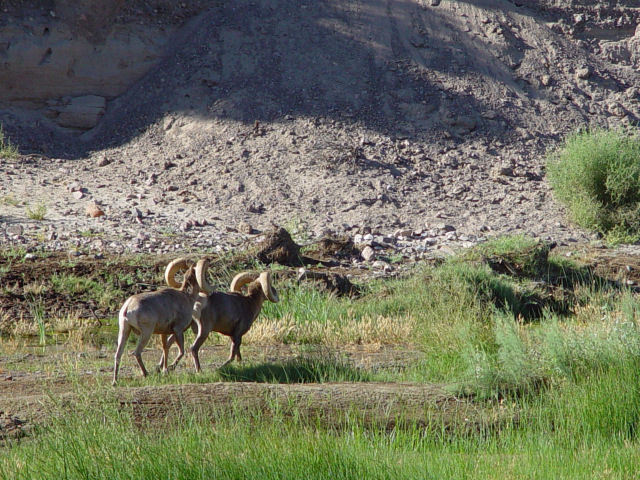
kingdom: Animalia
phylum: Chordata
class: Mammalia
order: Artiodactyla
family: Bovidae
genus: Ovis
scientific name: Ovis canadensis
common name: Bighorn sheep
